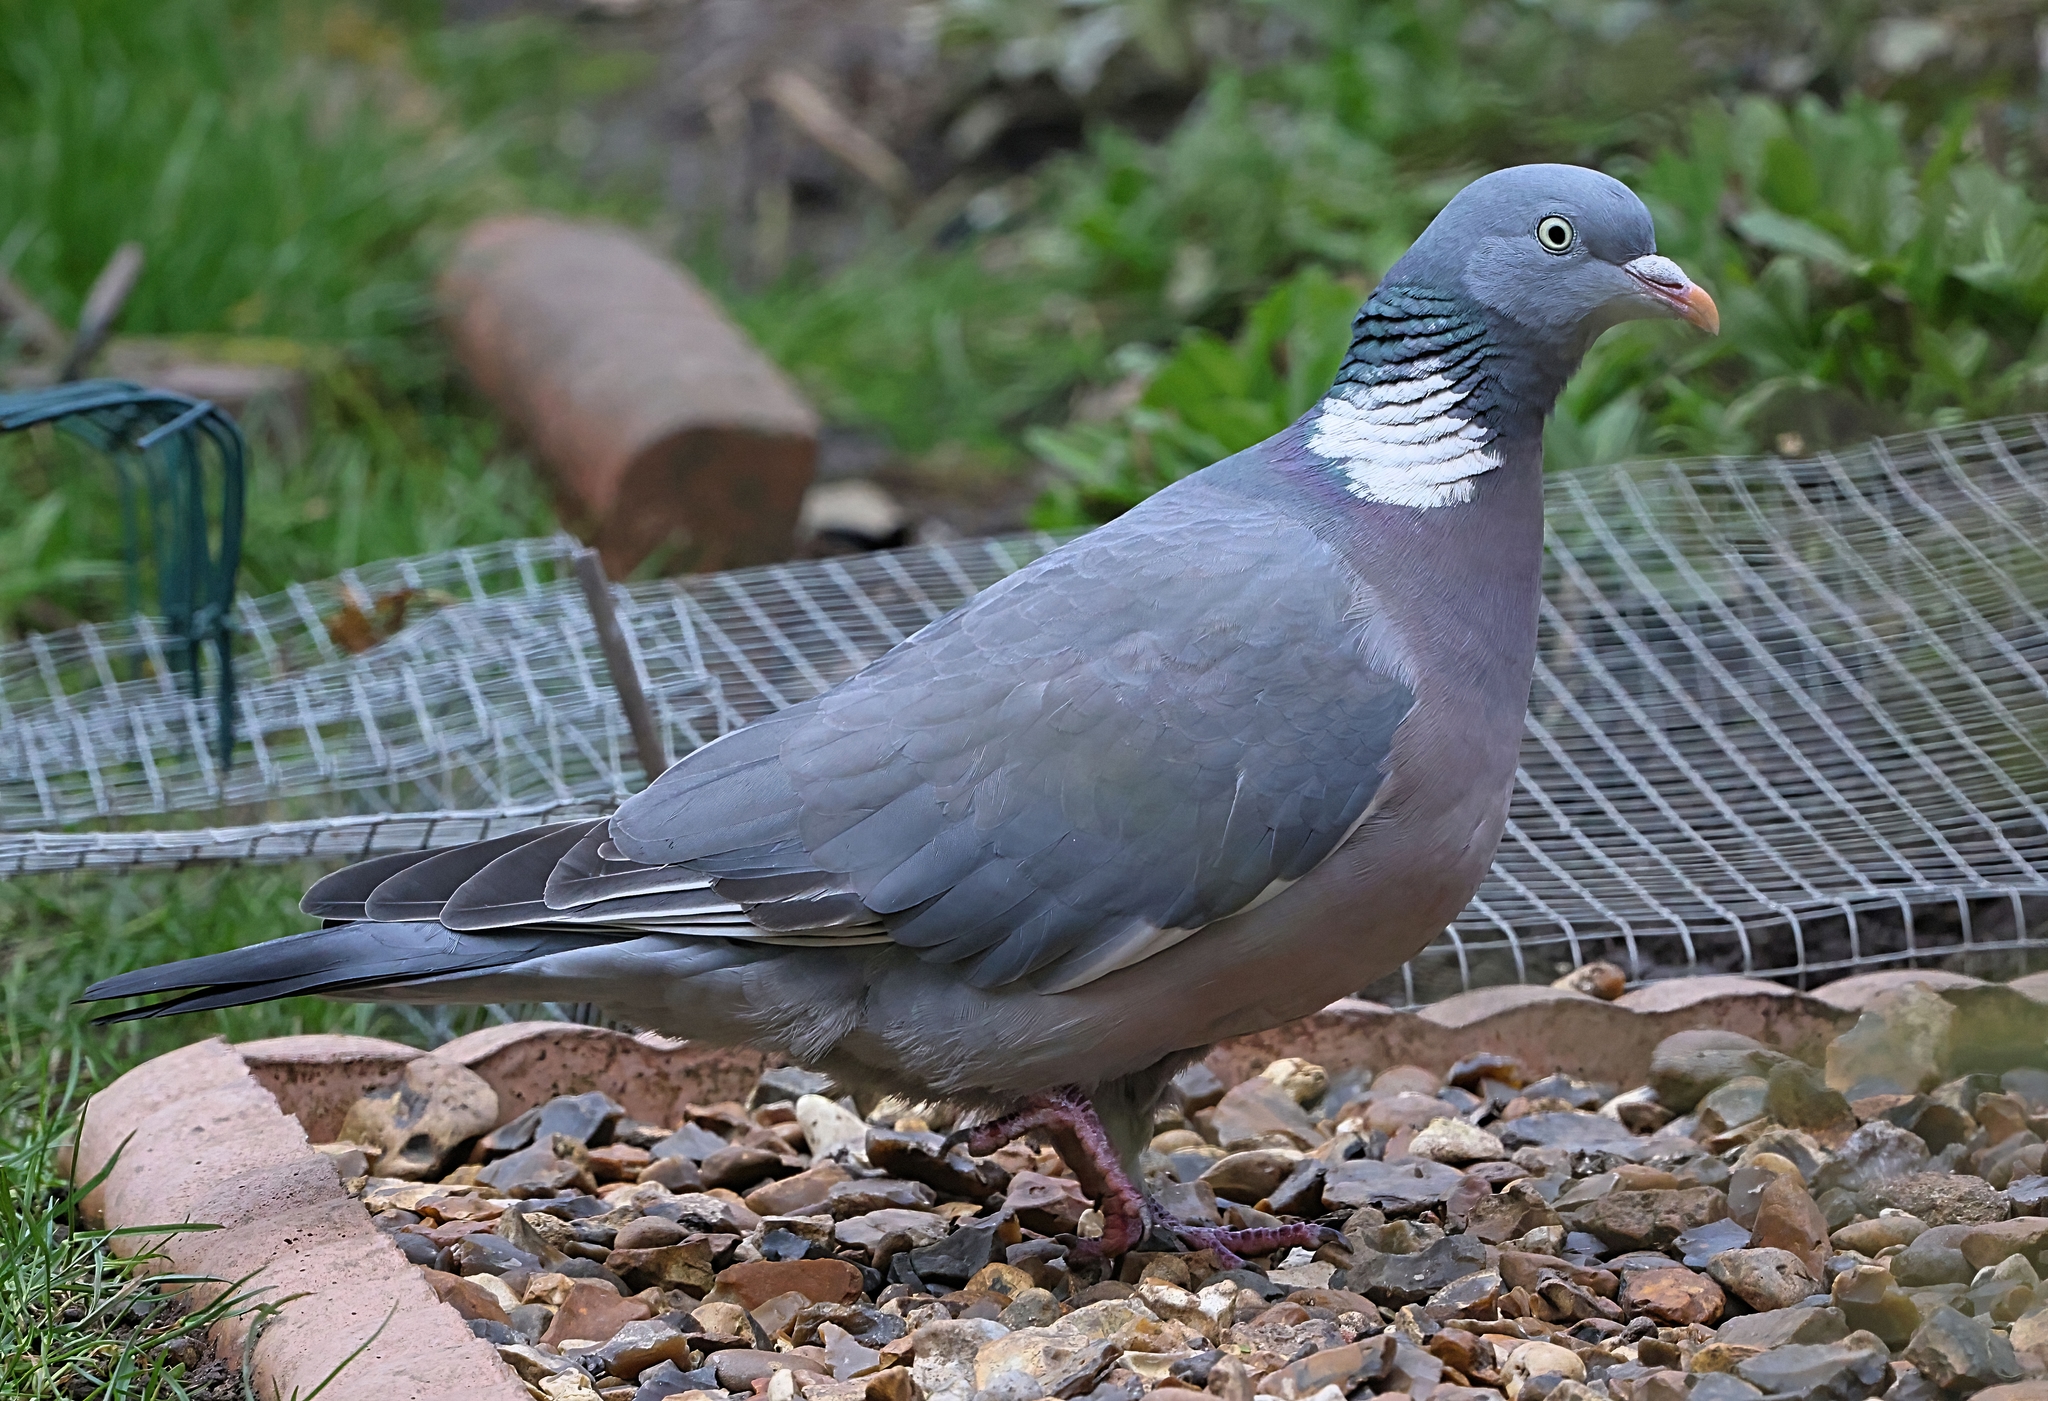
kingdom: Animalia
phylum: Chordata
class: Aves
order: Columbiformes
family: Columbidae
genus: Columba
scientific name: Columba palumbus
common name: Common wood pigeon
